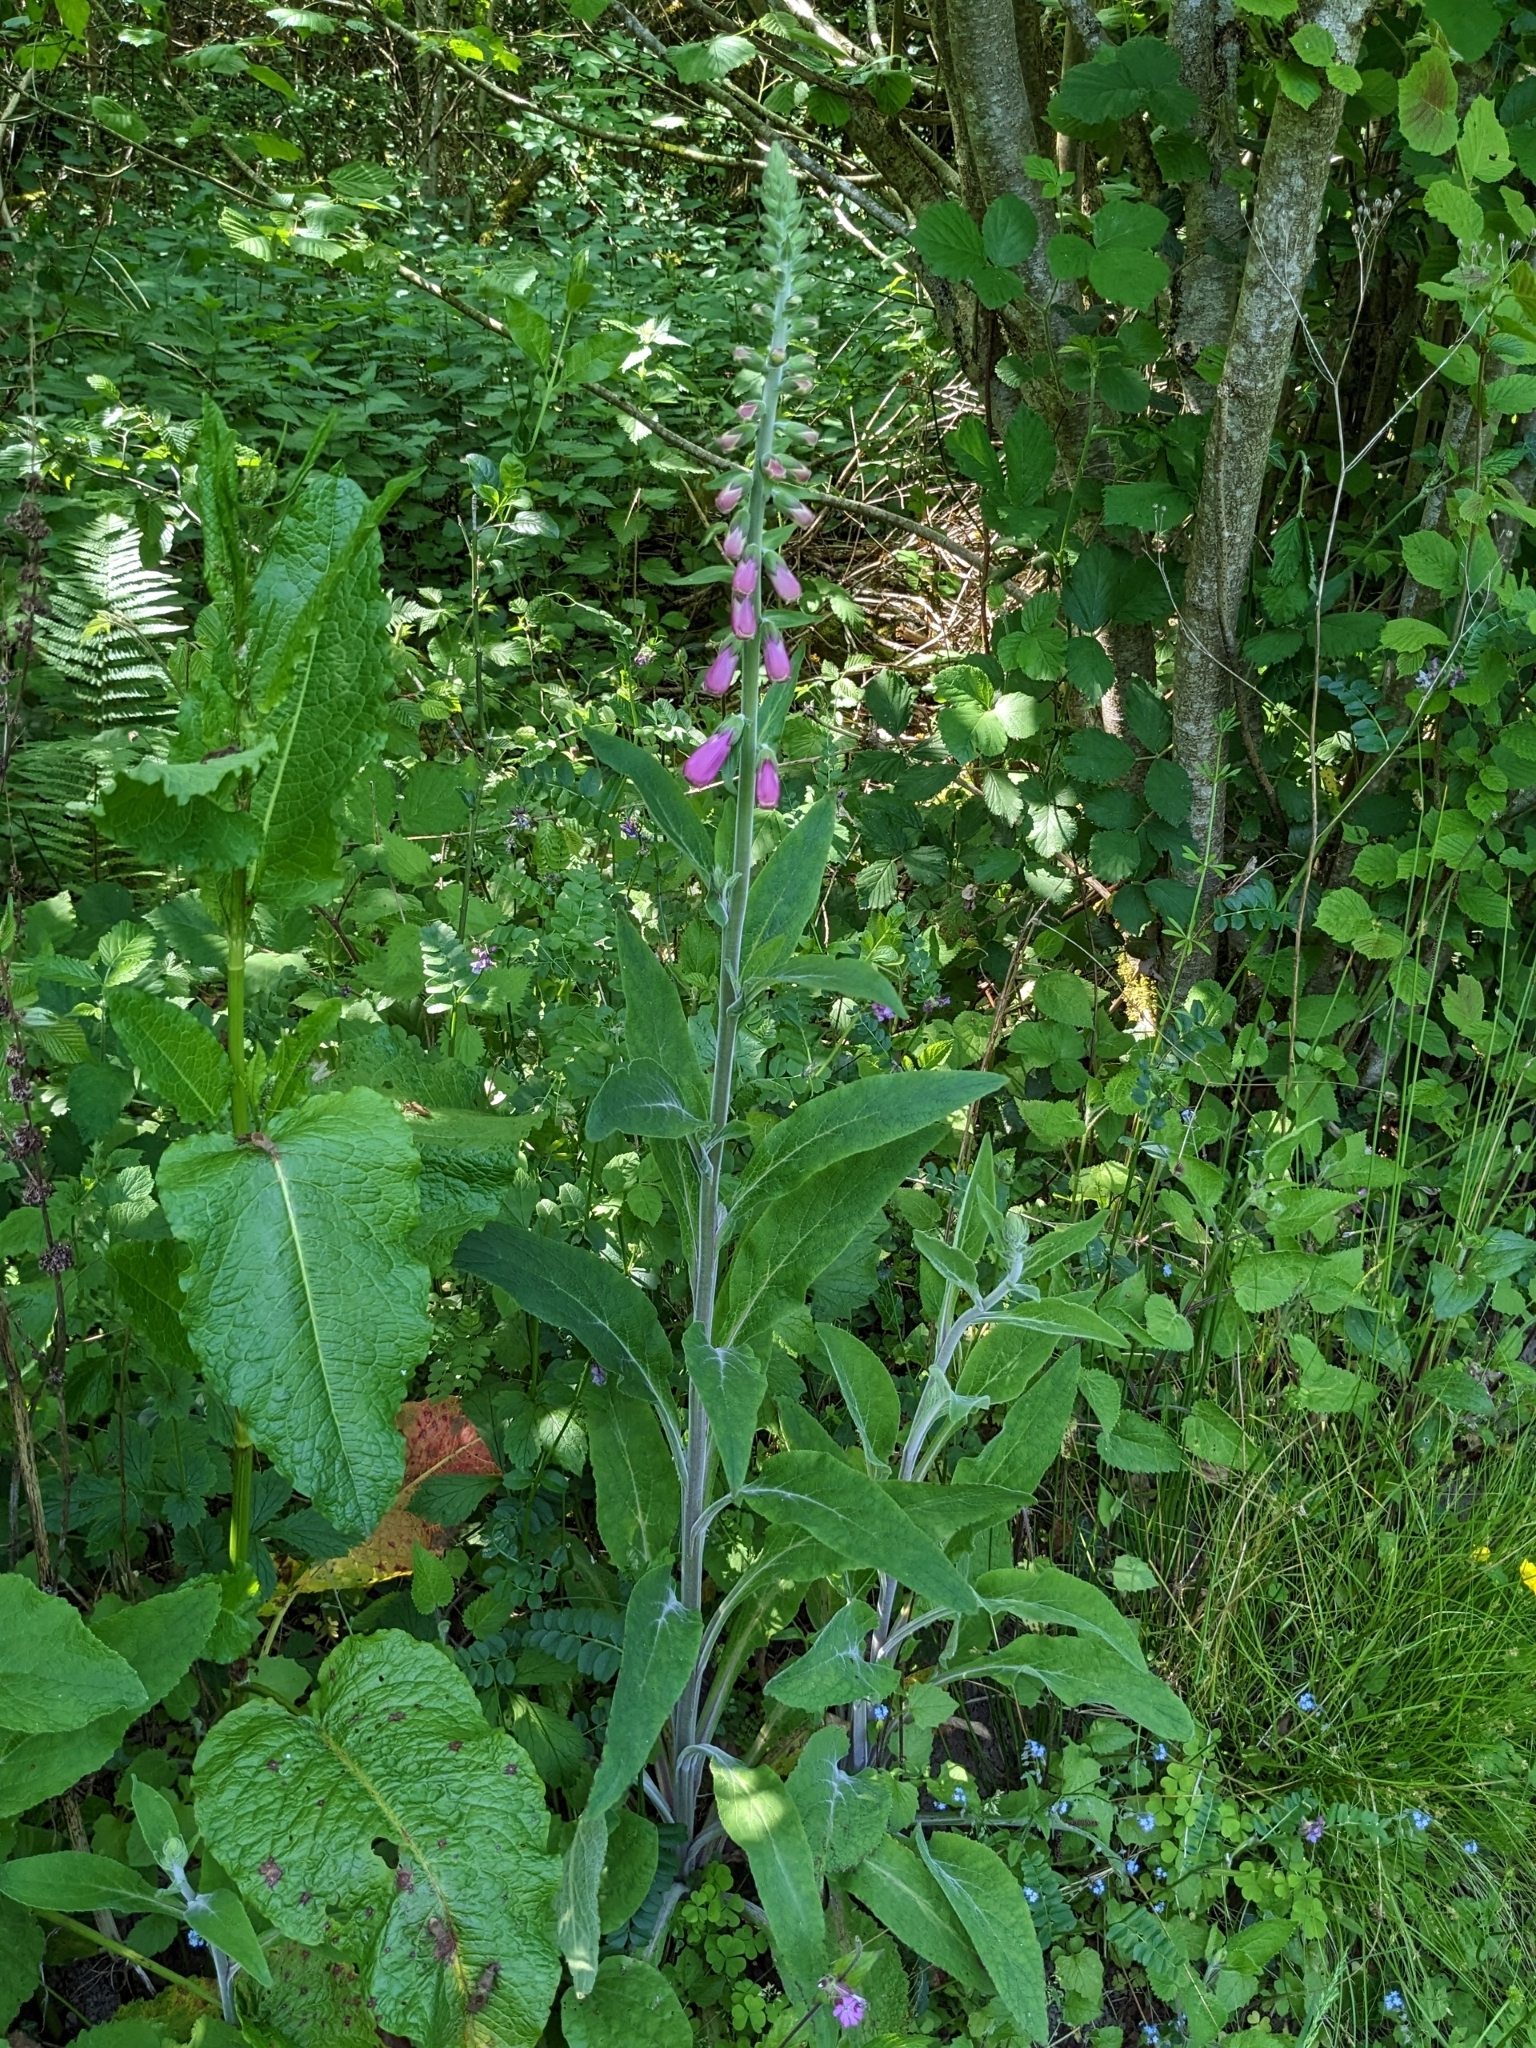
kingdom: Plantae
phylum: Tracheophyta
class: Magnoliopsida
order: Lamiales
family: Plantaginaceae
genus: Digitalis
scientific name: Digitalis purpurea
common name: Foxglove
